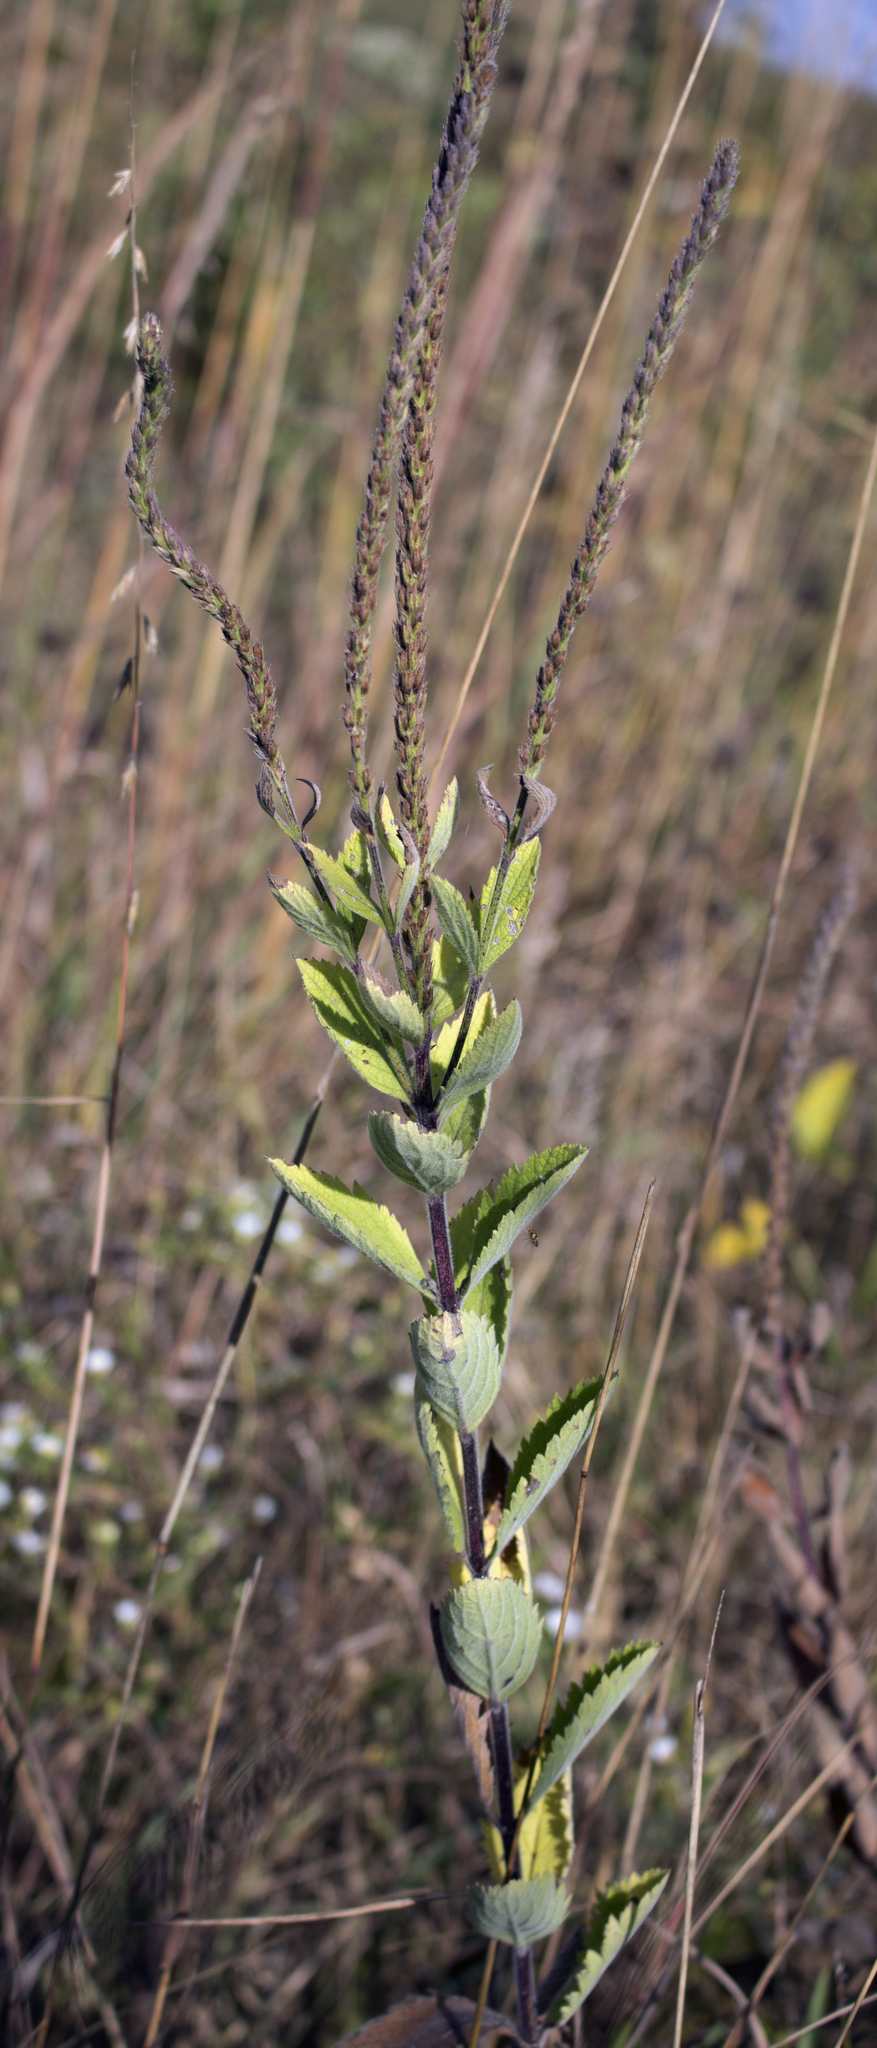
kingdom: Plantae
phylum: Tracheophyta
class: Magnoliopsida
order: Lamiales
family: Verbenaceae
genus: Verbena
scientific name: Verbena stricta
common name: Hoary vervain
